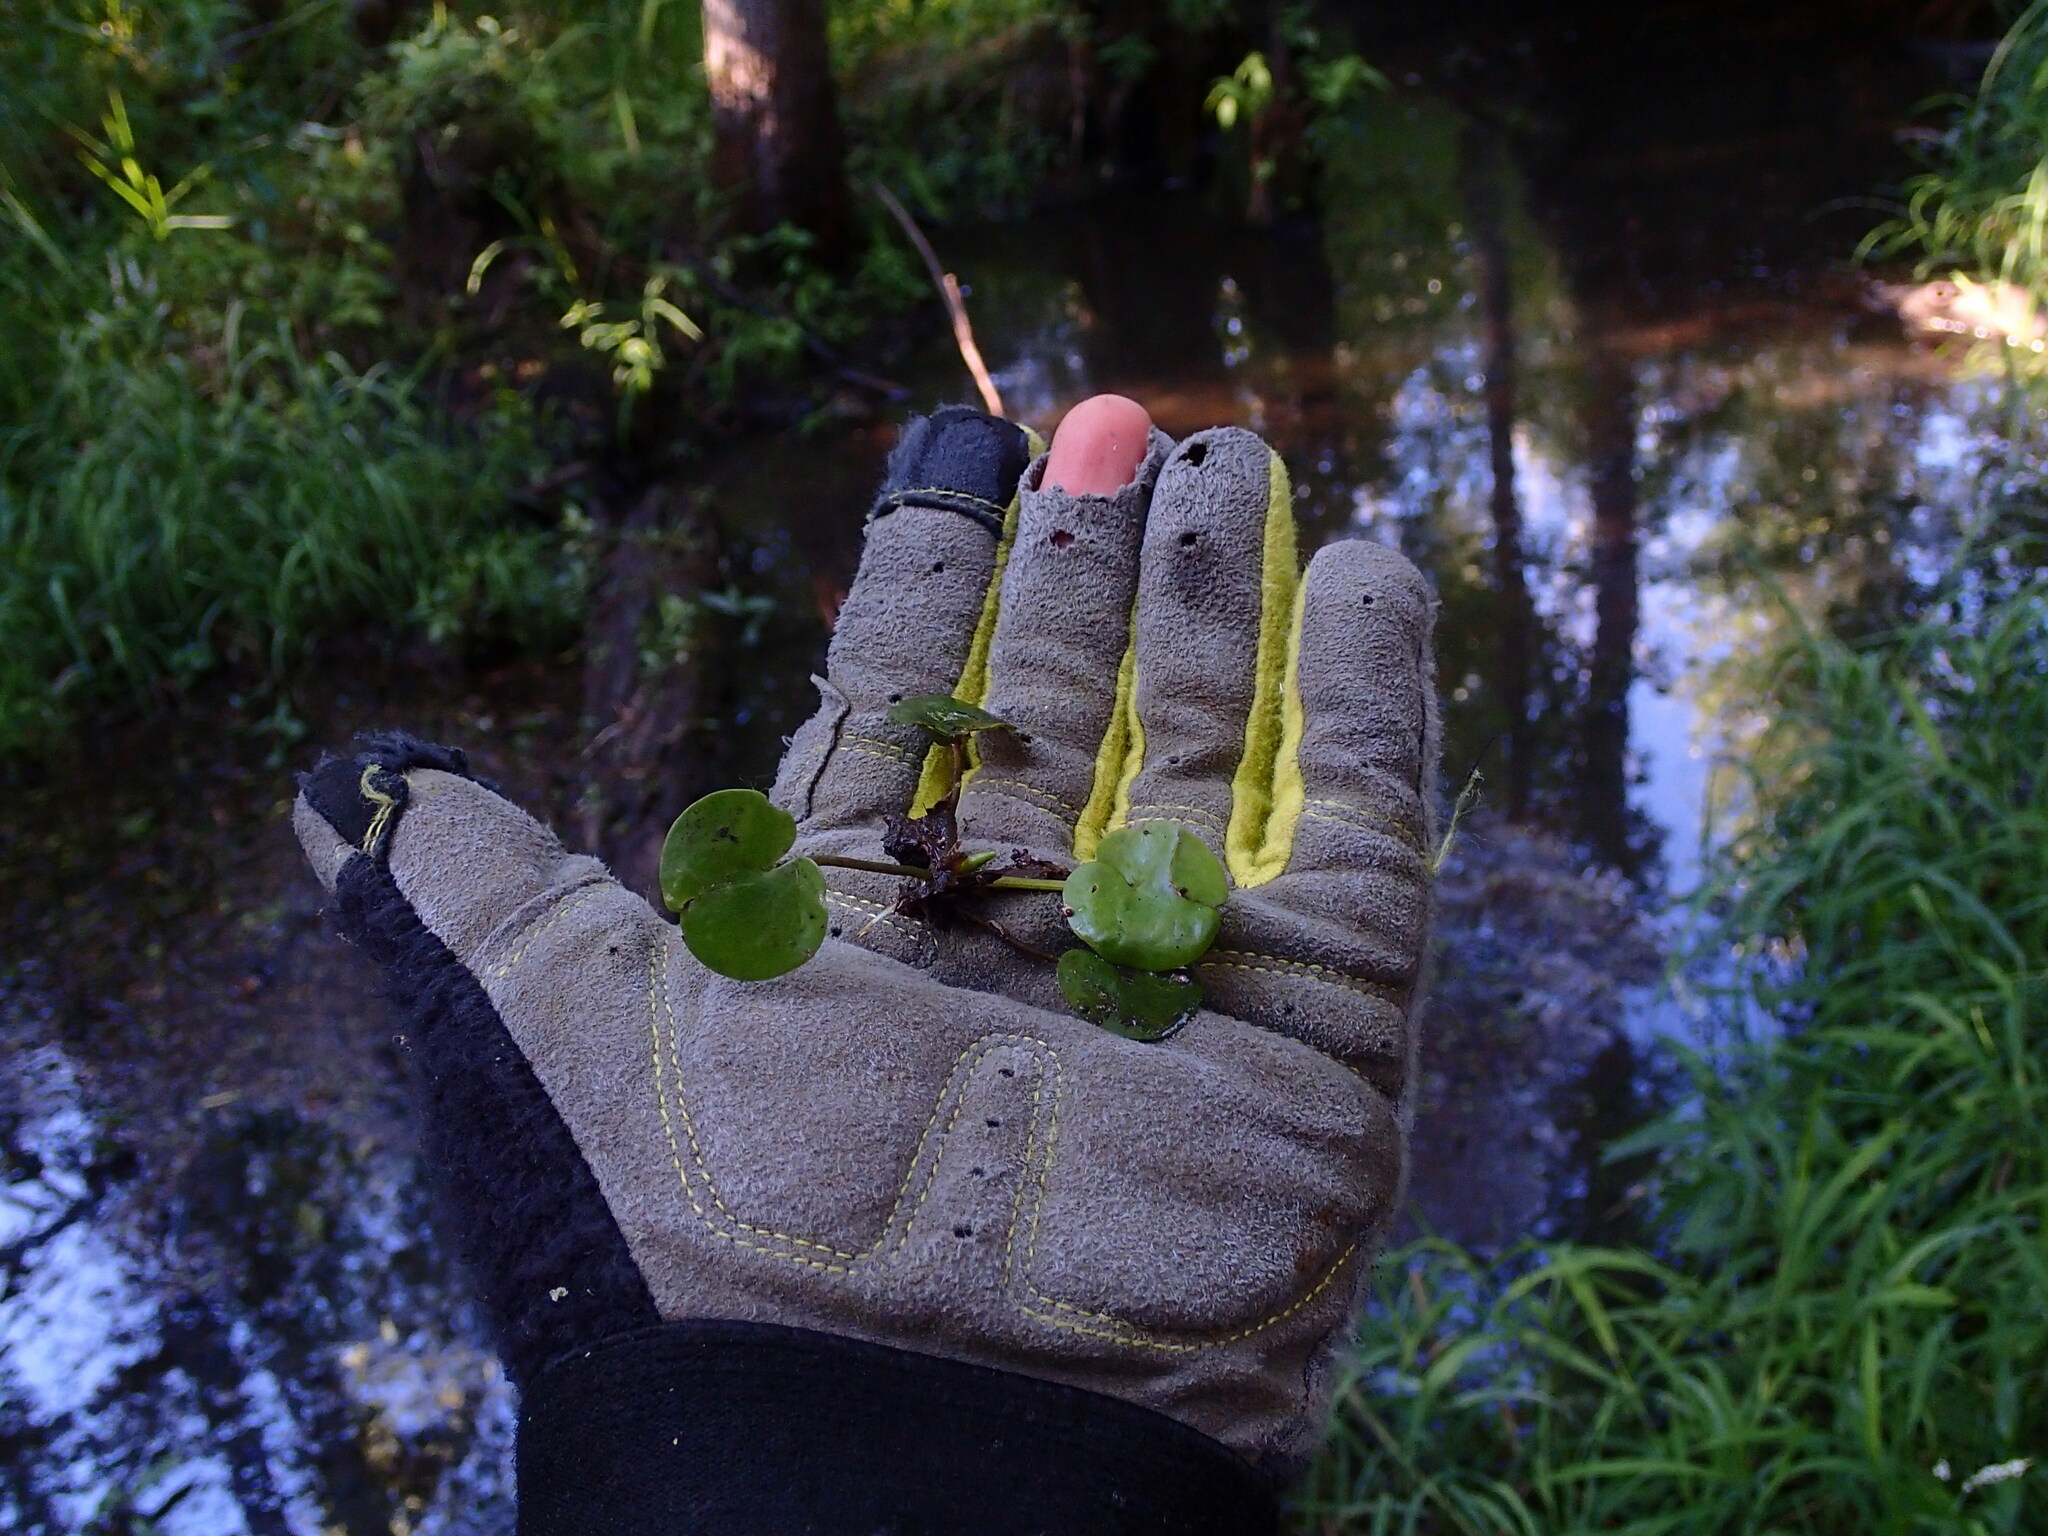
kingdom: Plantae
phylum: Tracheophyta
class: Liliopsida
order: Alismatales
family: Hydrocharitaceae
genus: Hydrocharis
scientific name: Hydrocharis morsus-ranae
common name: Frogbit
